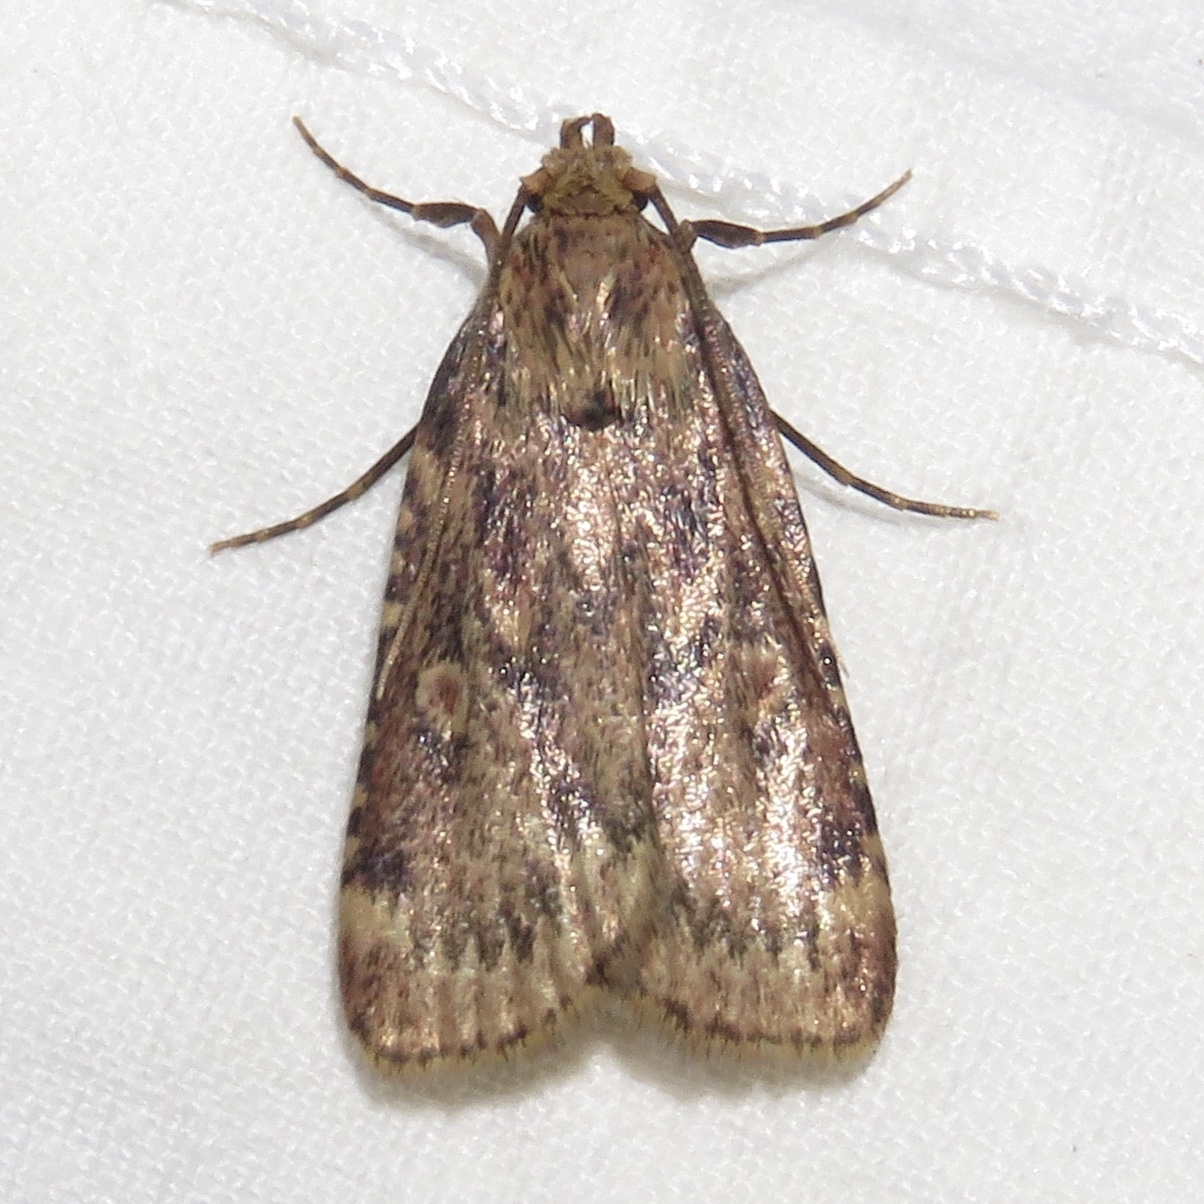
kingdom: Animalia
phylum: Arthropoda
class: Insecta
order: Lepidoptera
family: Pyralidae
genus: Aglossa
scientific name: Aglossa cuprina
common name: Grease moth
